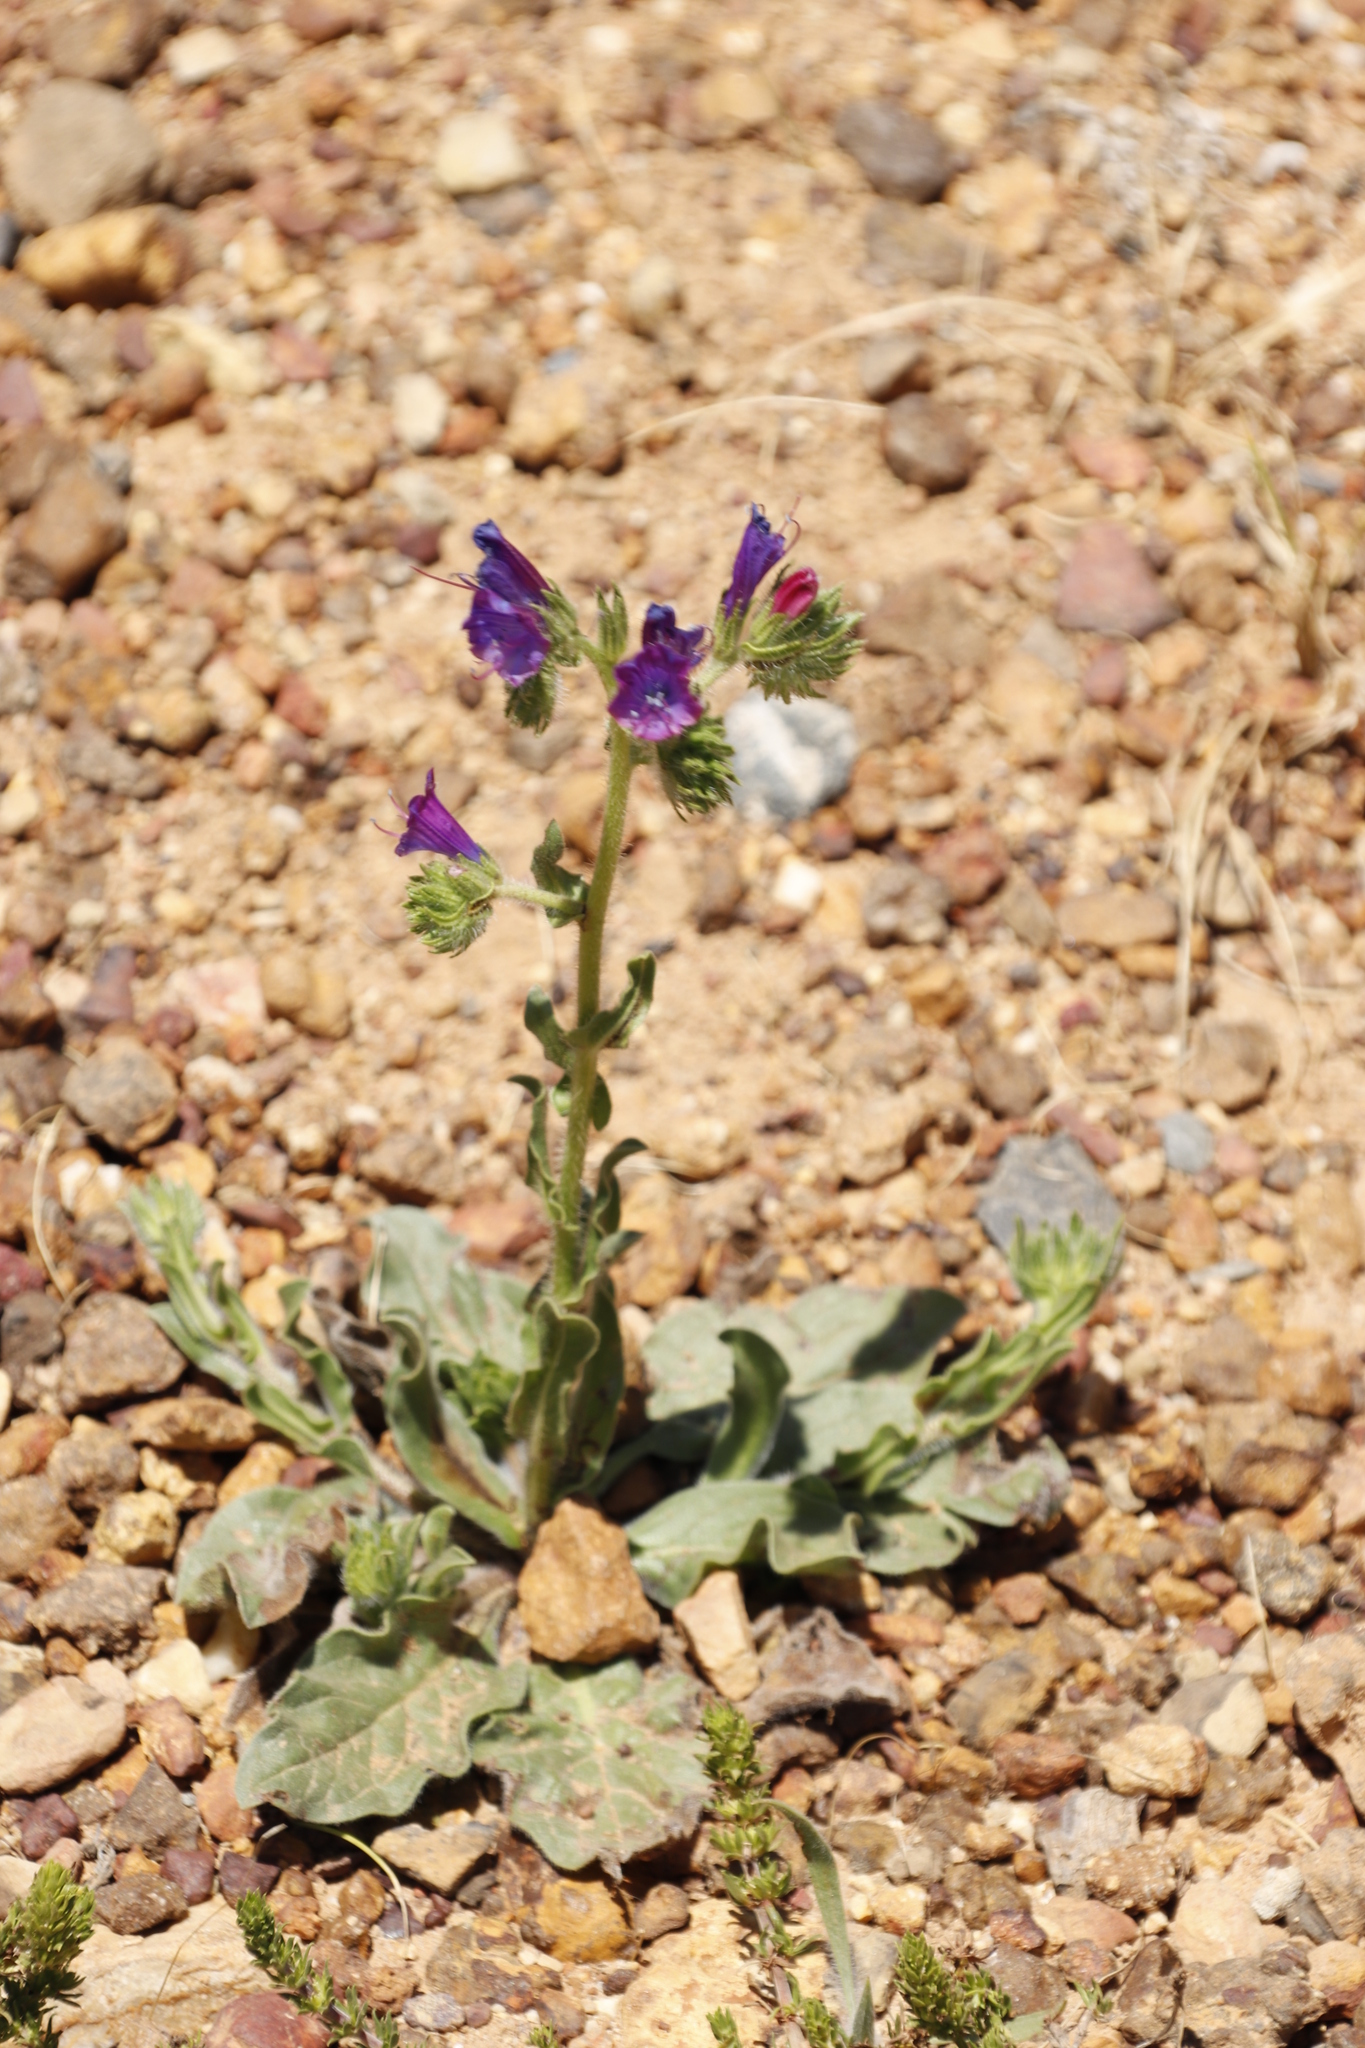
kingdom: Plantae
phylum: Tracheophyta
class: Magnoliopsida
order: Boraginales
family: Boraginaceae
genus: Echium
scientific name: Echium plantagineum
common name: Purple viper's-bugloss
